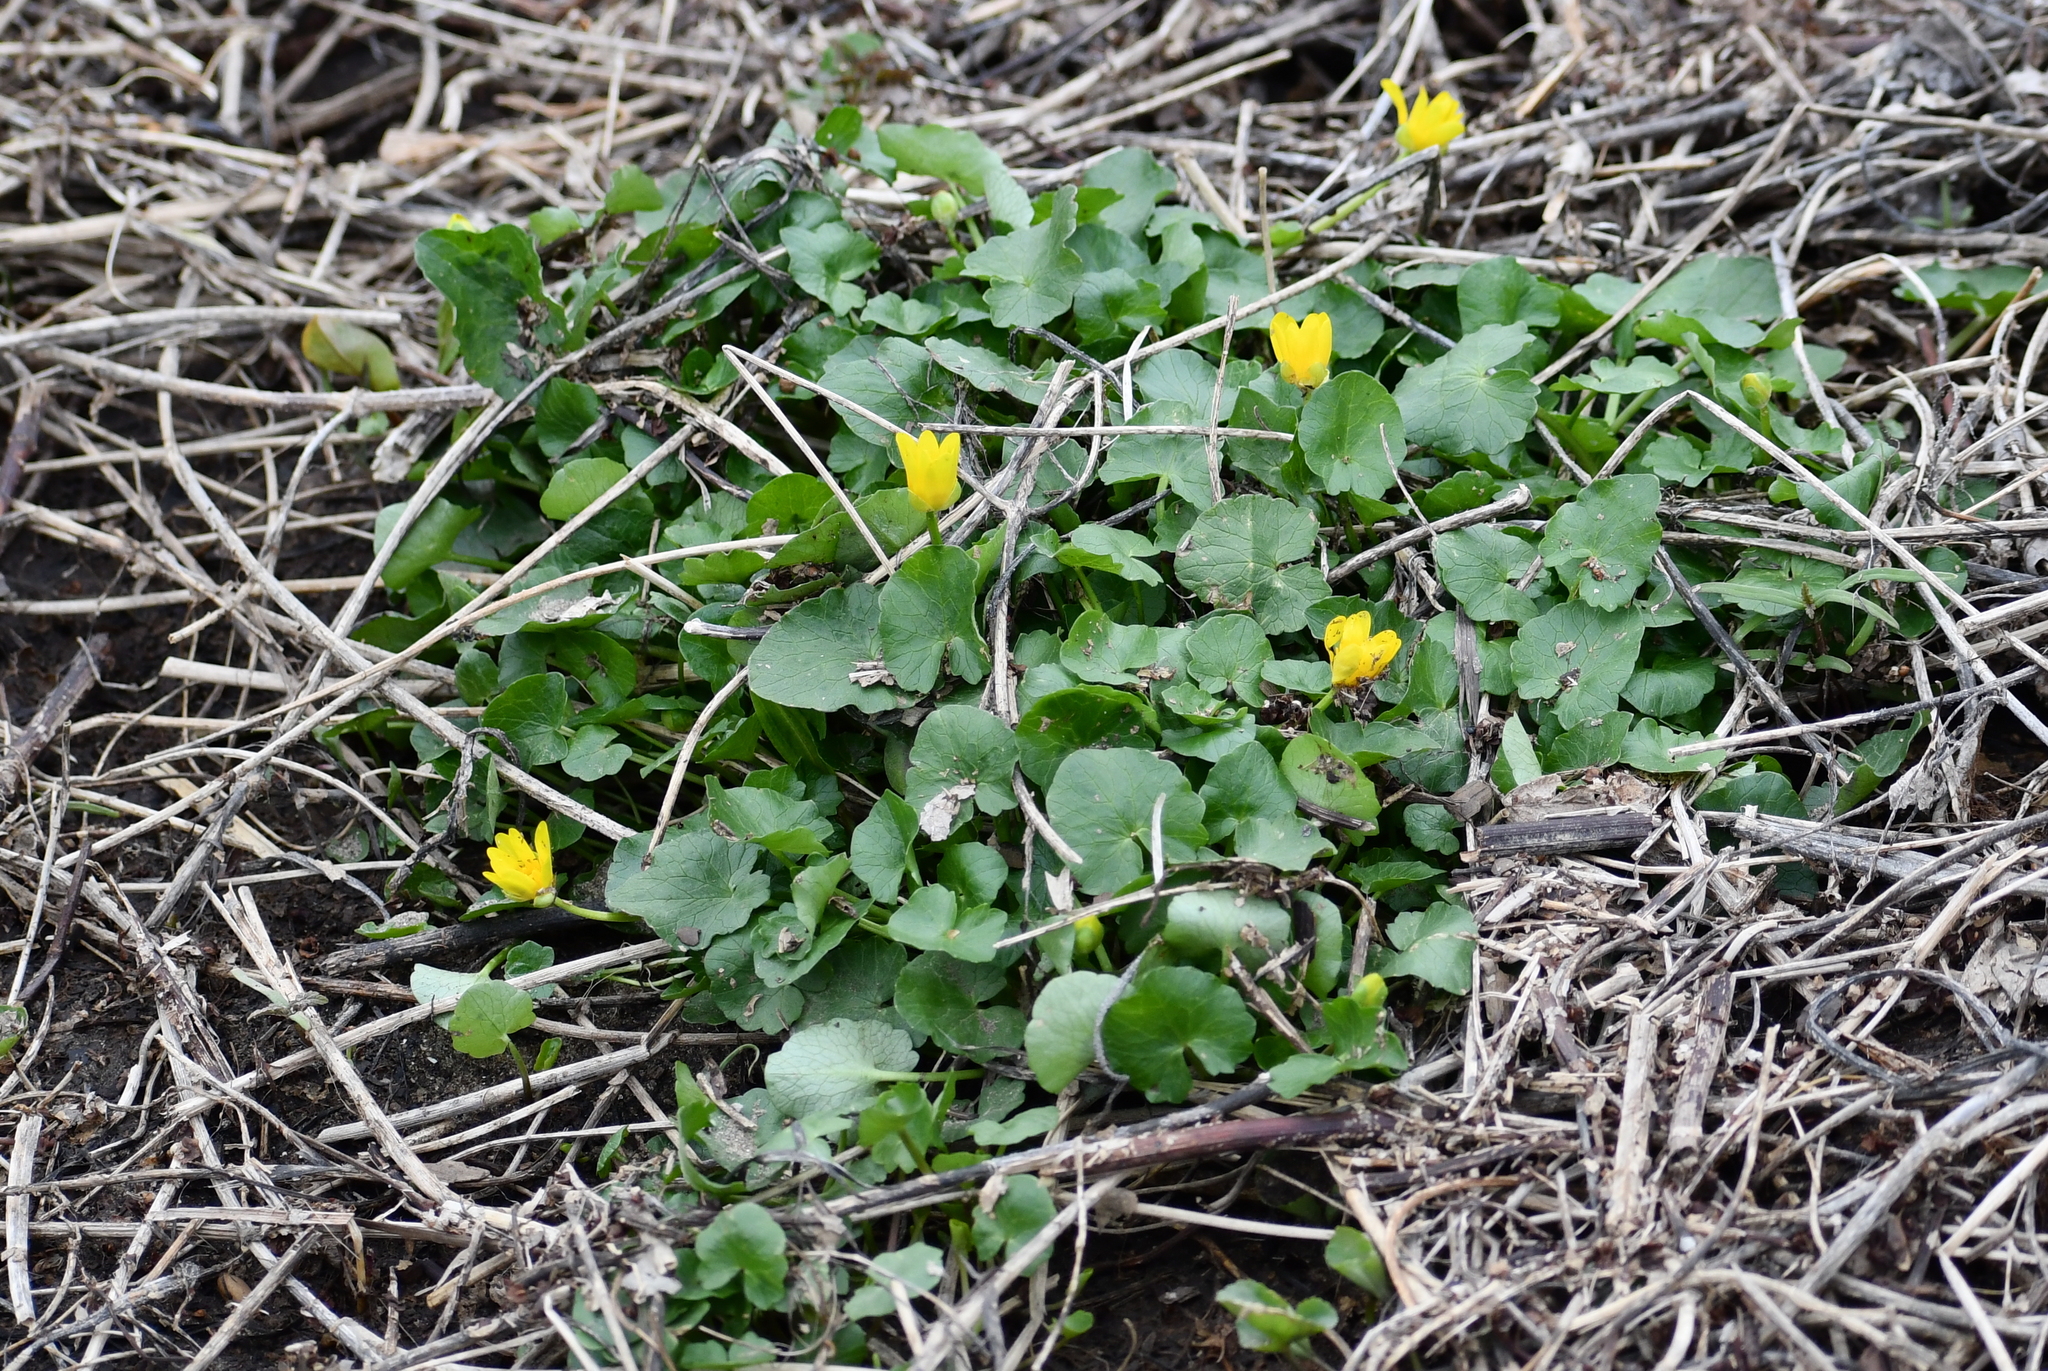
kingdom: Plantae
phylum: Tracheophyta
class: Magnoliopsida
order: Ranunculales
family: Ranunculaceae
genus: Ficaria
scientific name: Ficaria verna
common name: Lesser celandine
